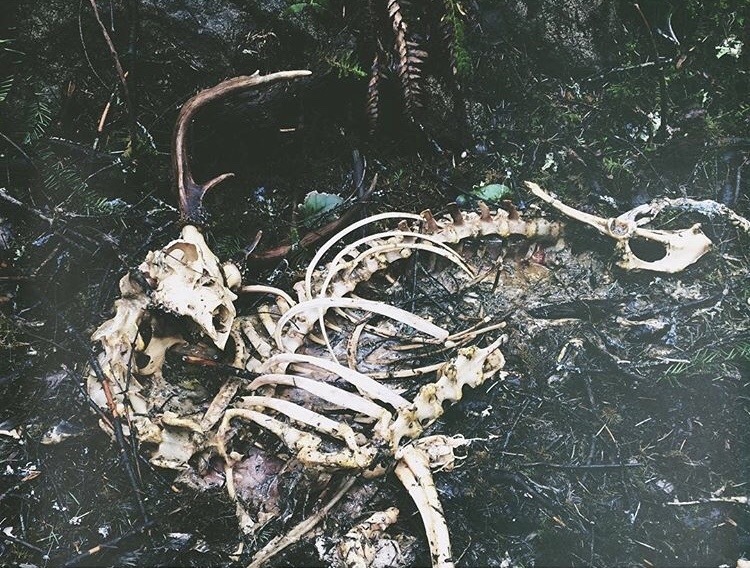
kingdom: Animalia
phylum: Chordata
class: Mammalia
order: Artiodactyla
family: Cervidae
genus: Odocoileus
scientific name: Odocoileus hemionus
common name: Mule deer
